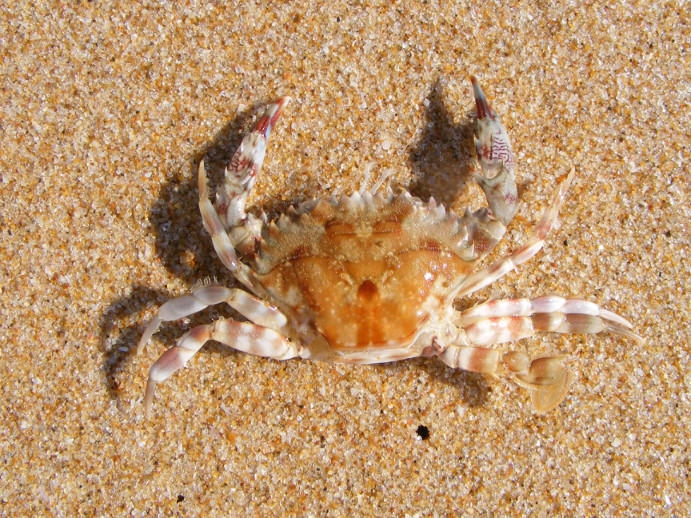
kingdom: Animalia
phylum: Arthropoda
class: Malacostraca
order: Decapoda
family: Portunidae
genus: Charybdis
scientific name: Charybdis hellerii
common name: Spiny hands
